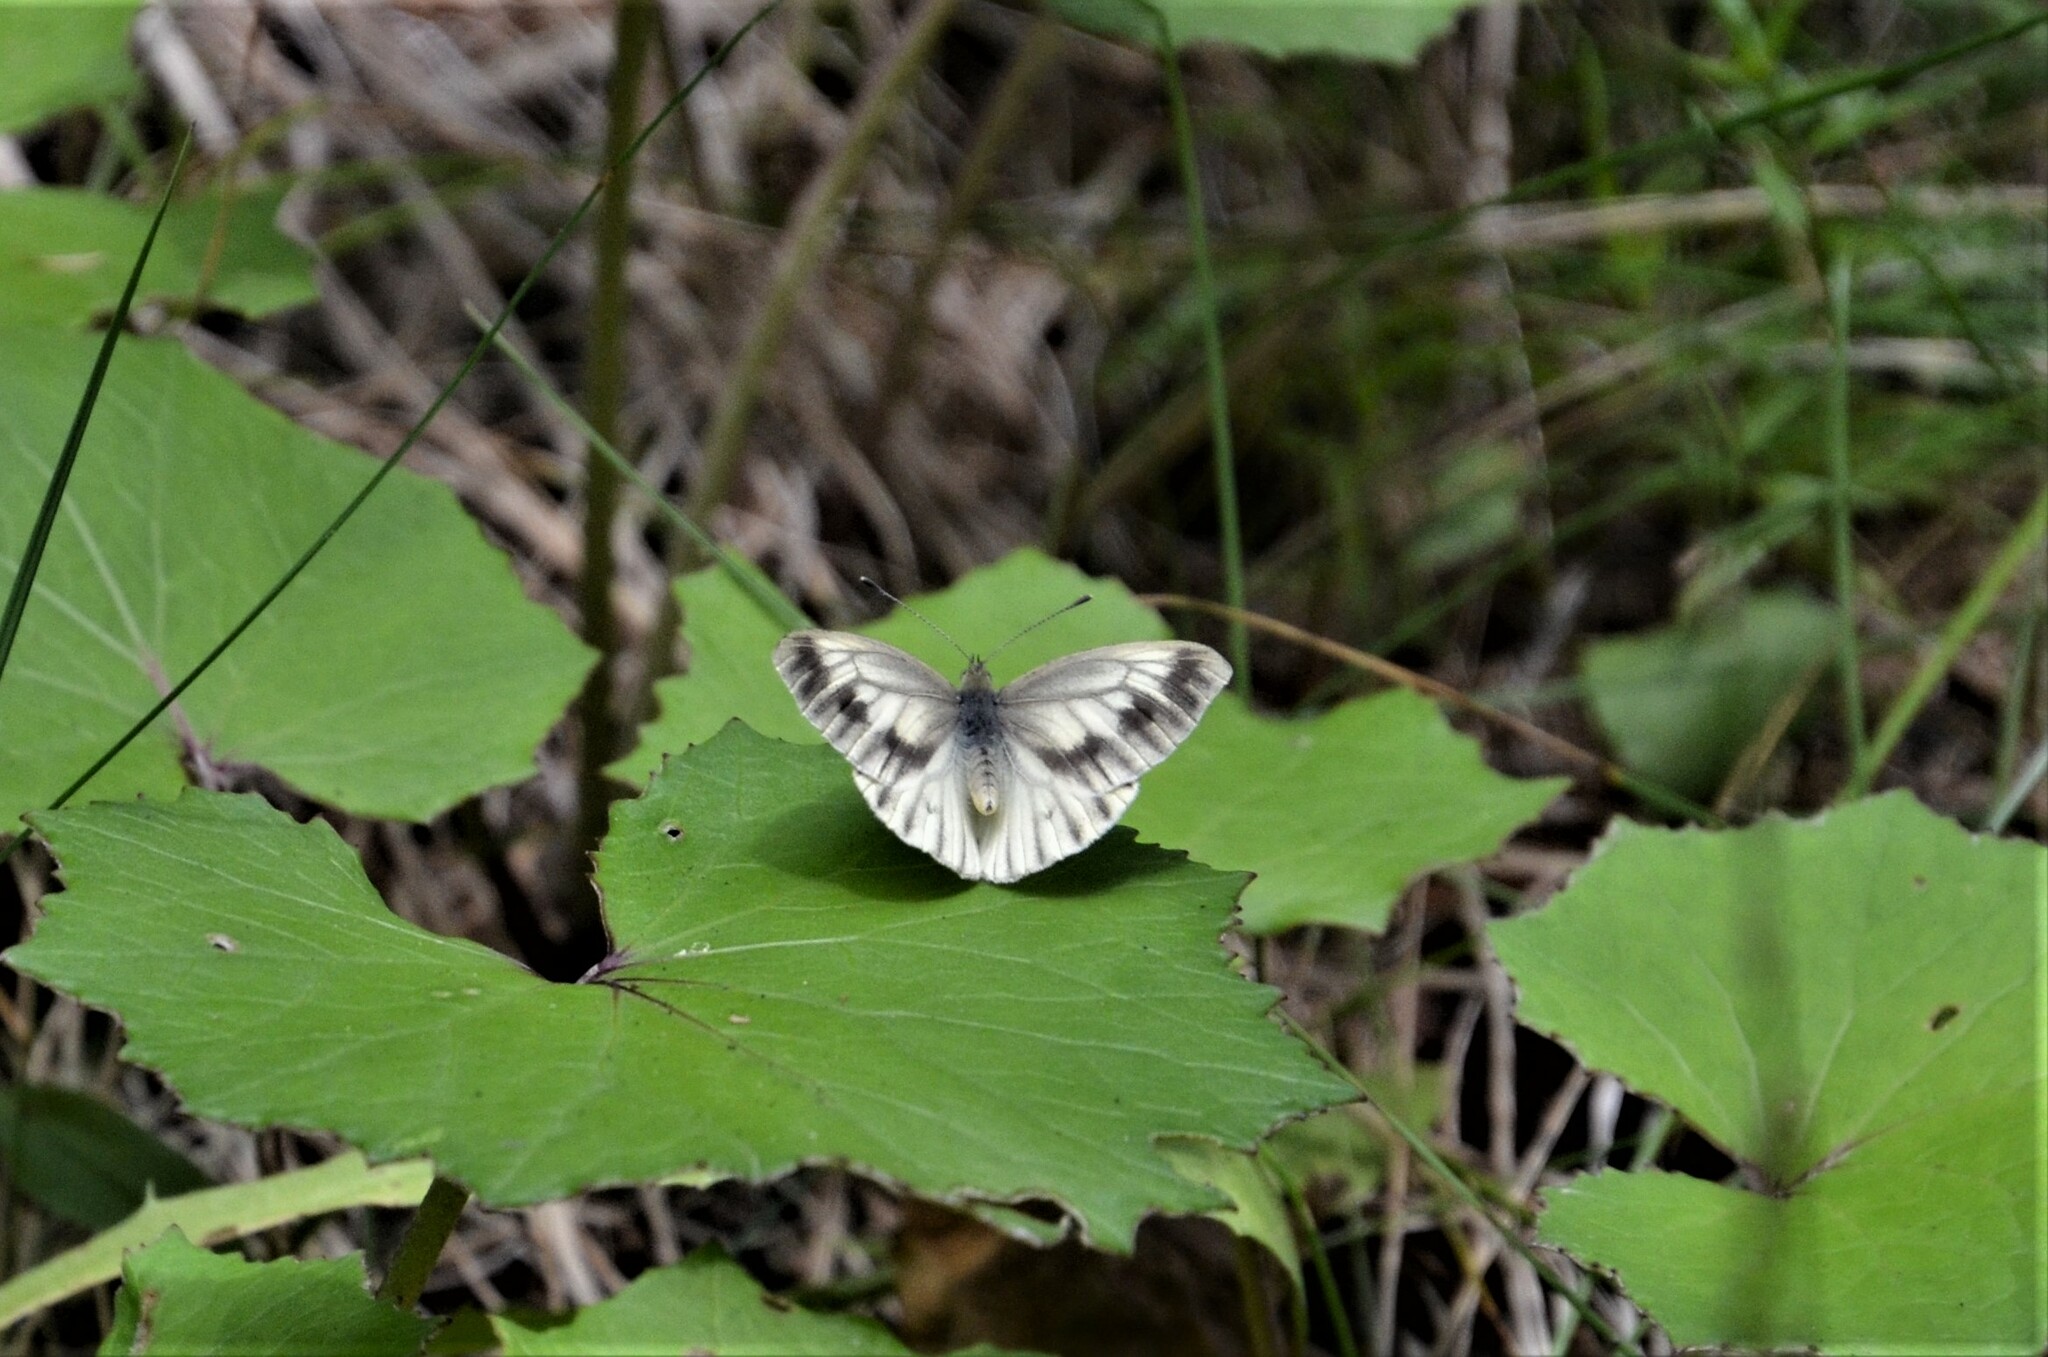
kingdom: Animalia
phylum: Arthropoda
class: Insecta
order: Lepidoptera
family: Pieridae
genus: Pieris
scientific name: Pieris bryoniae
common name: Mountain green-veined white
